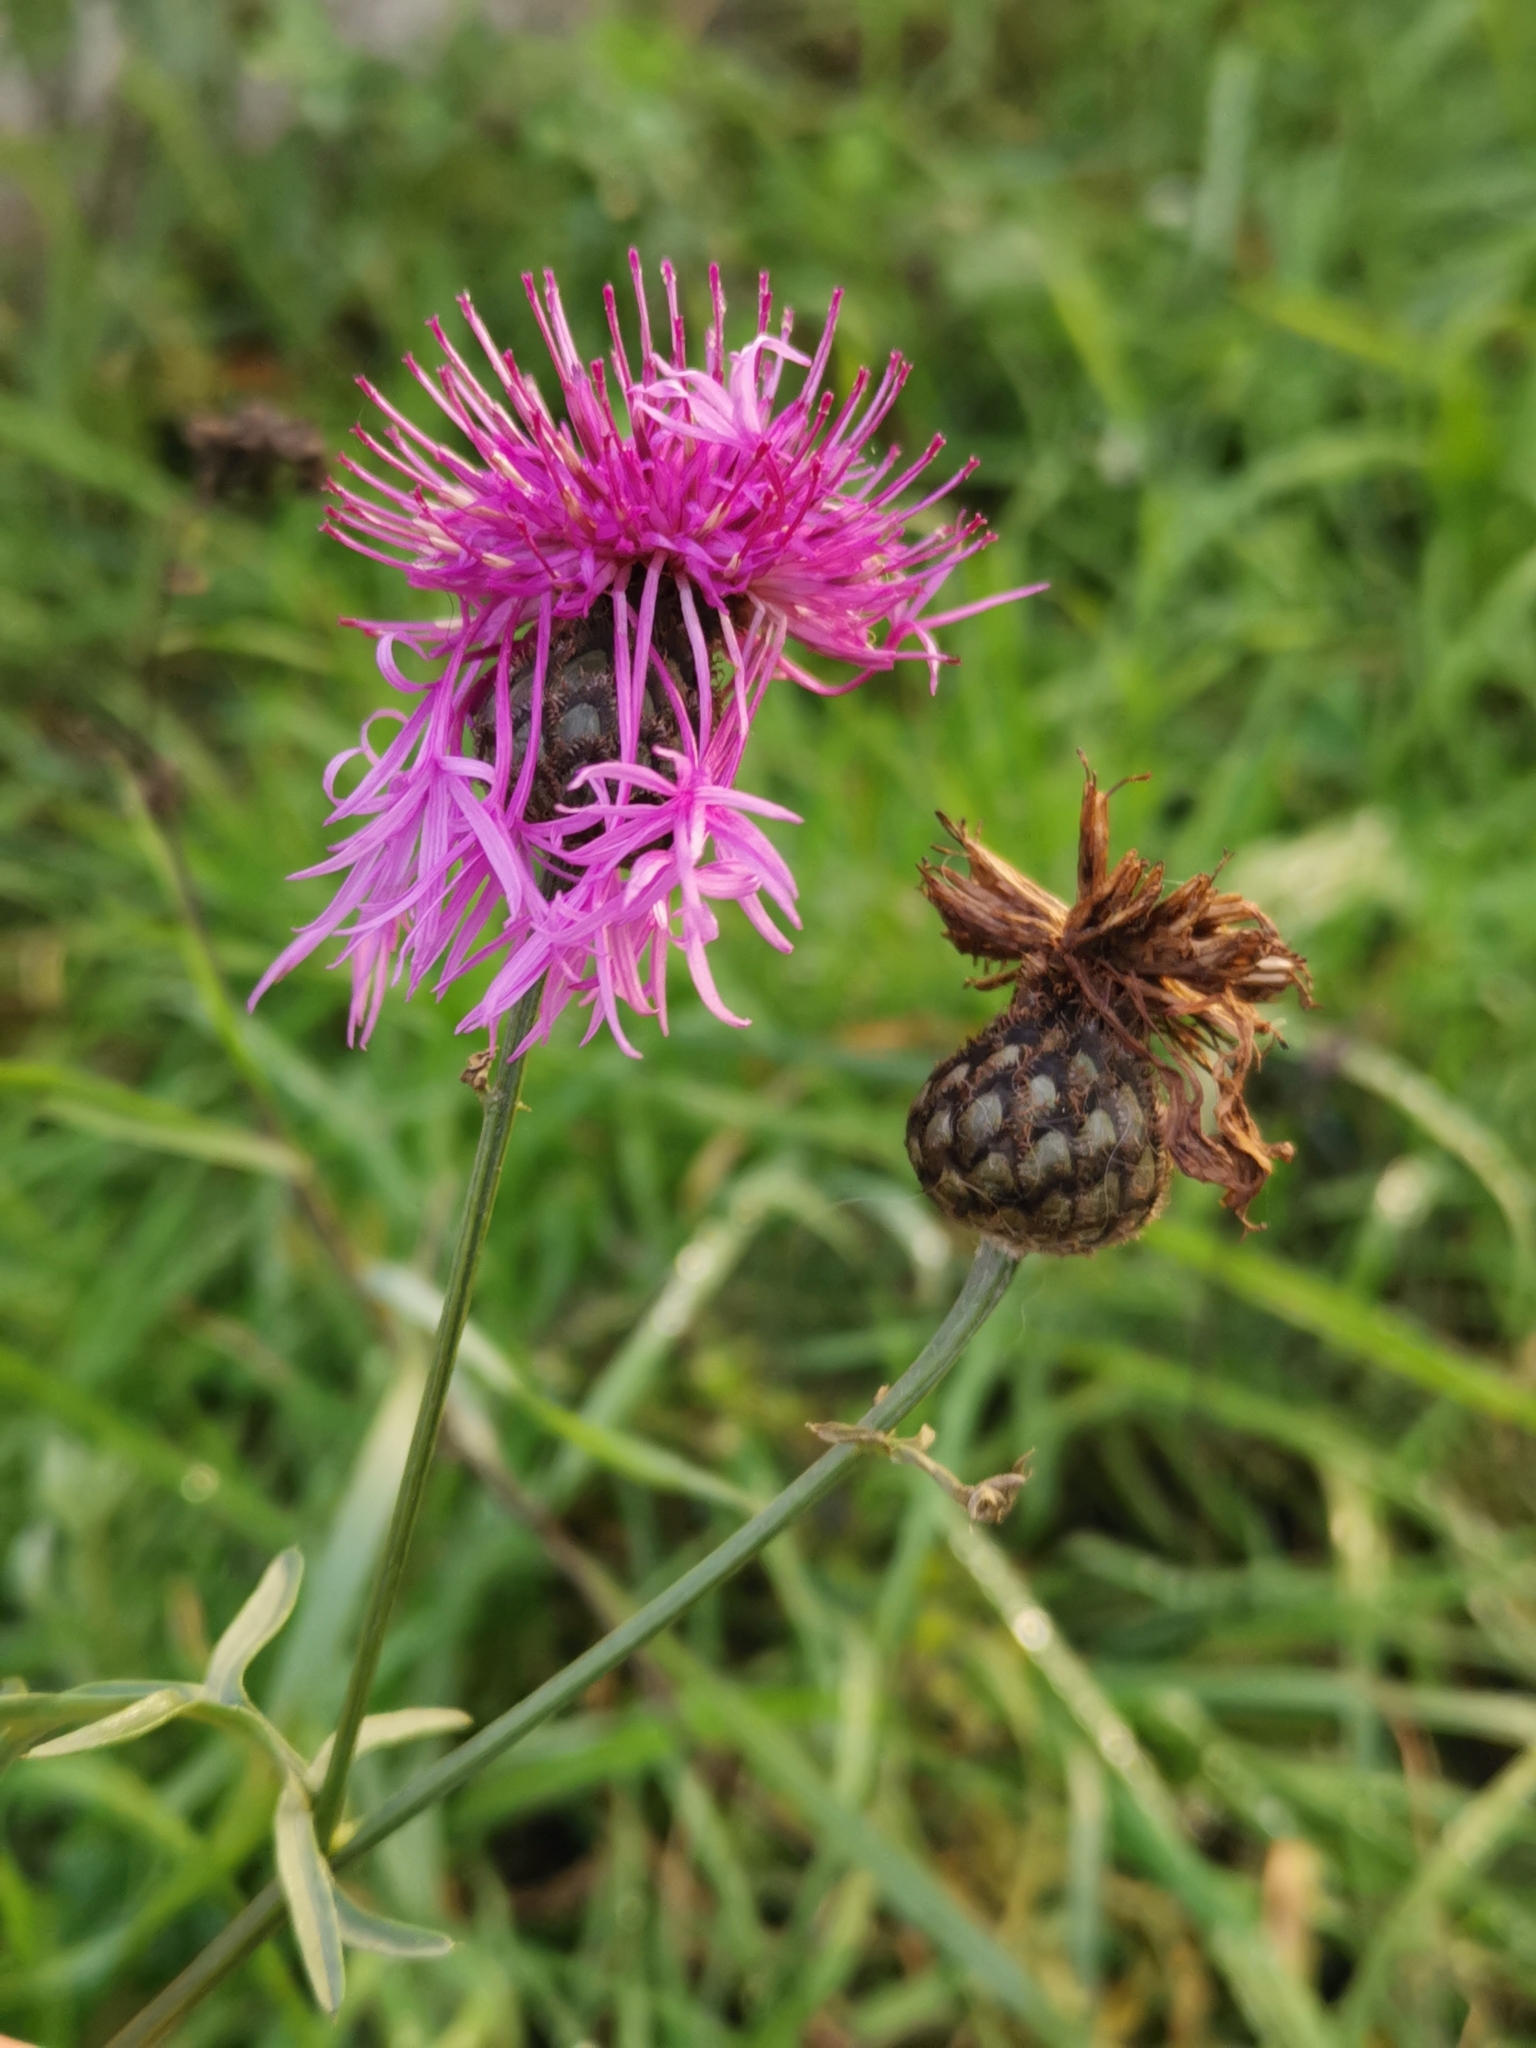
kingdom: Plantae
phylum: Tracheophyta
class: Magnoliopsida
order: Asterales
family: Asteraceae
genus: Centaurea
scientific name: Centaurea scabiosa
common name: Greater knapweed
